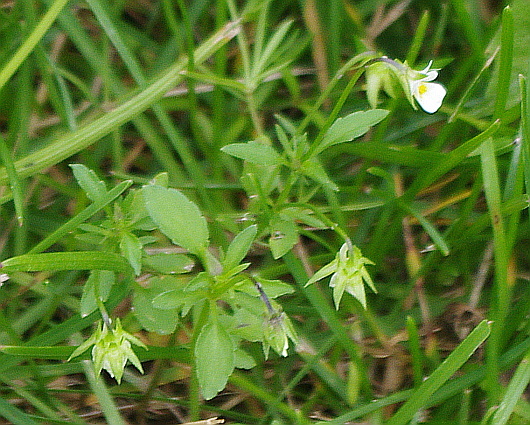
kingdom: Plantae
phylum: Tracheophyta
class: Magnoliopsida
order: Malpighiales
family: Violaceae
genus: Viola
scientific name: Viola arvensis
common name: Field pansy
